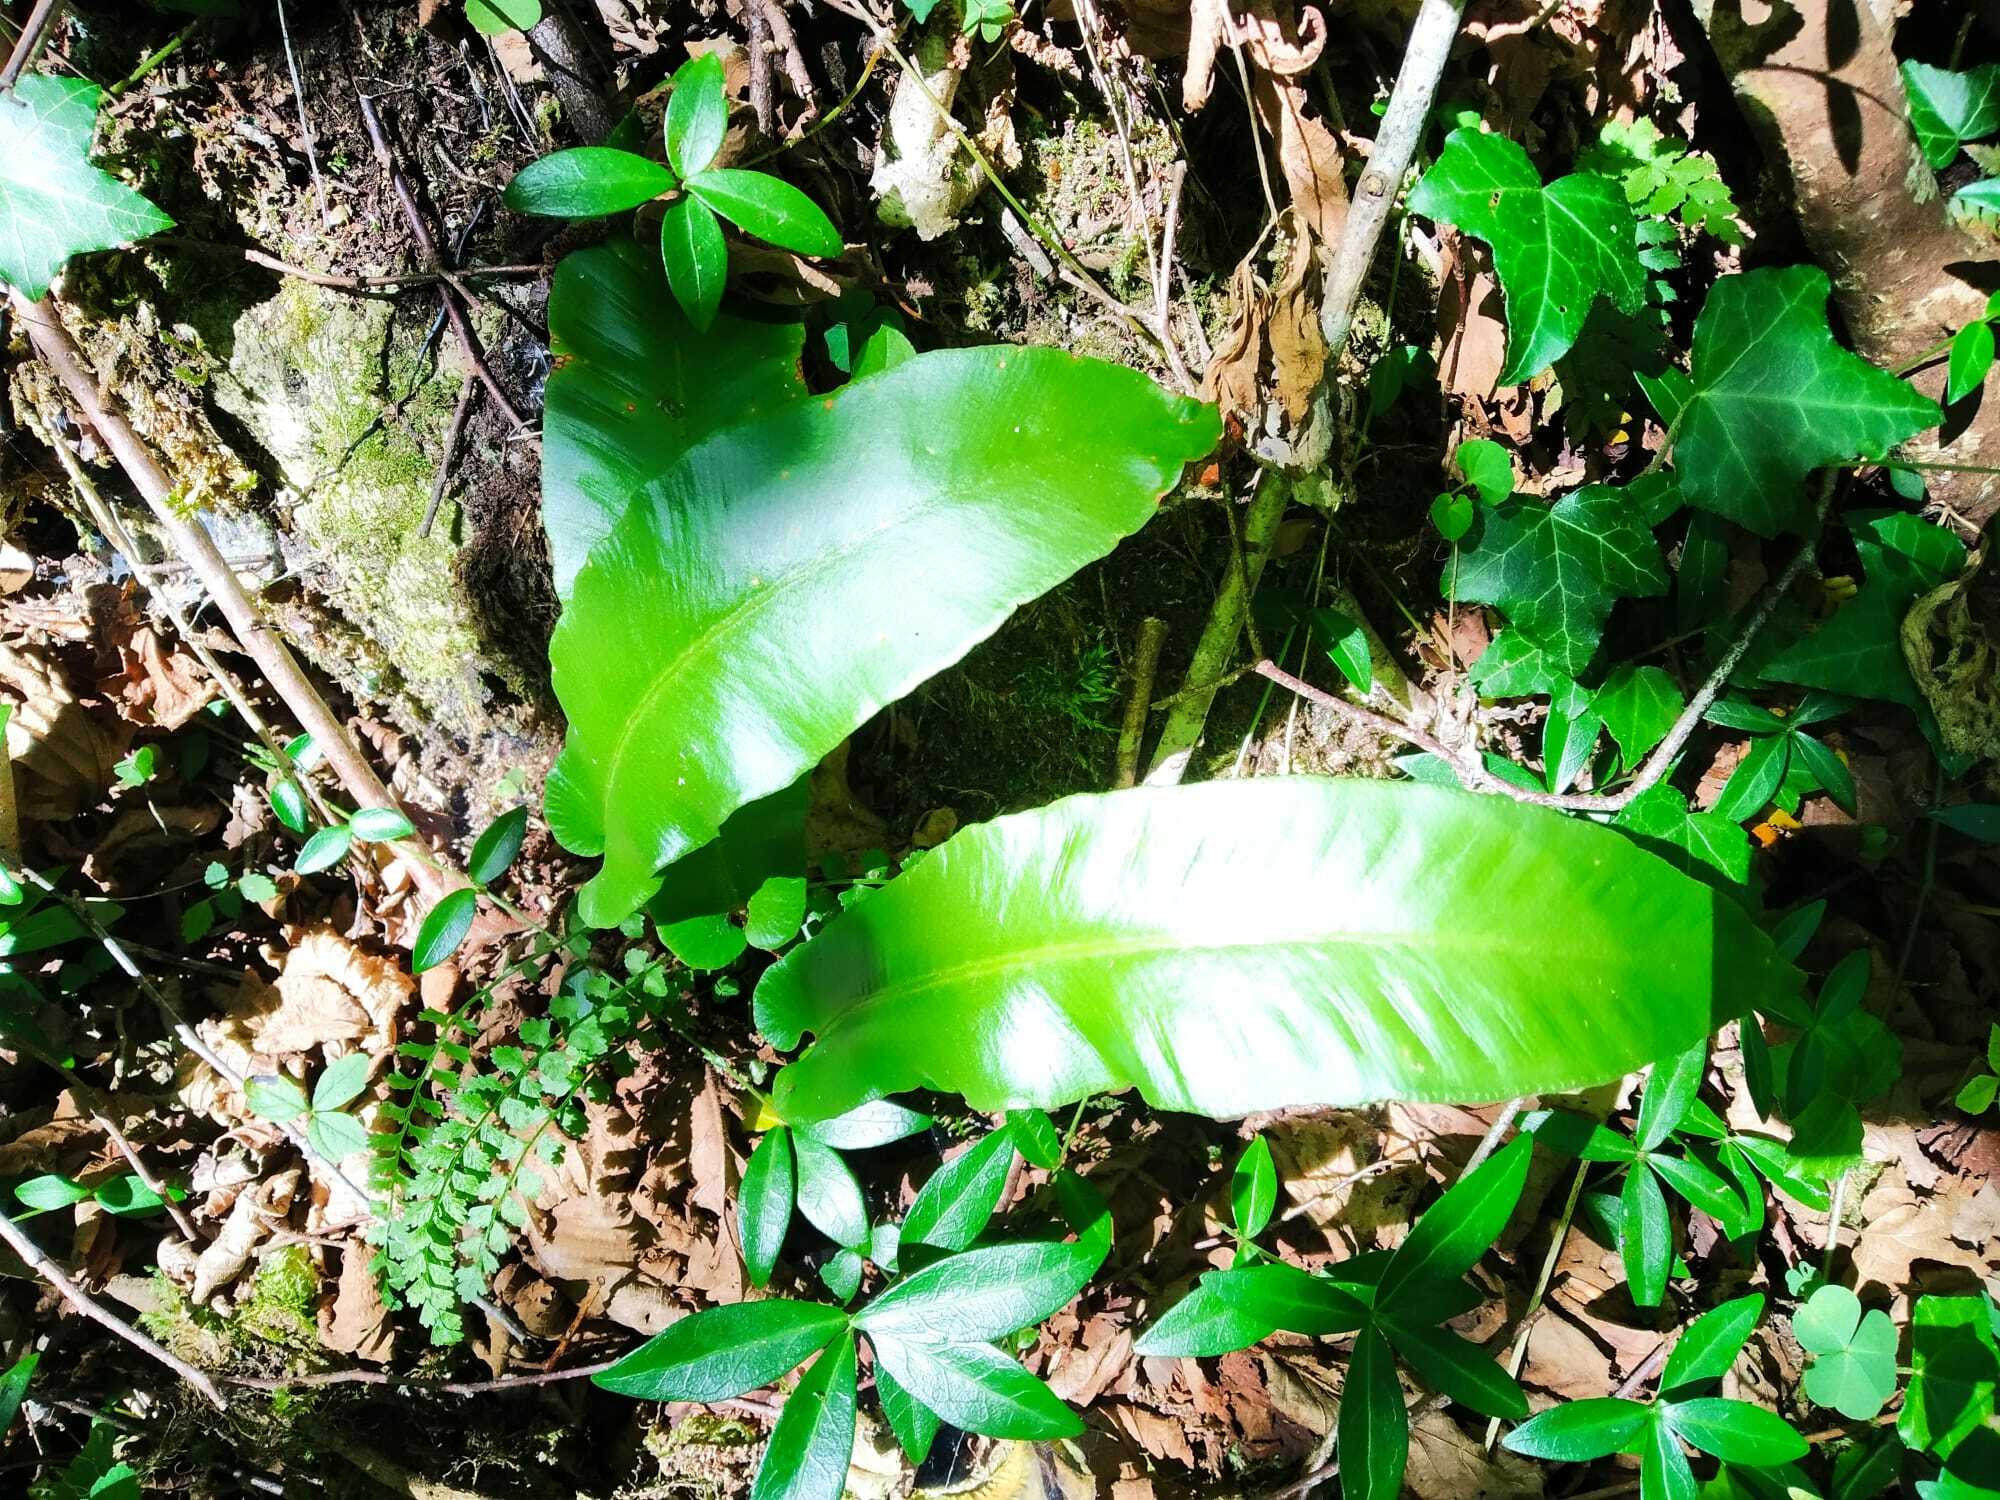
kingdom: Plantae
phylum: Tracheophyta
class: Polypodiopsida
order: Polypodiales
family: Aspleniaceae
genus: Asplenium
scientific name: Asplenium scolopendrium
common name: Hart's-tongue fern
